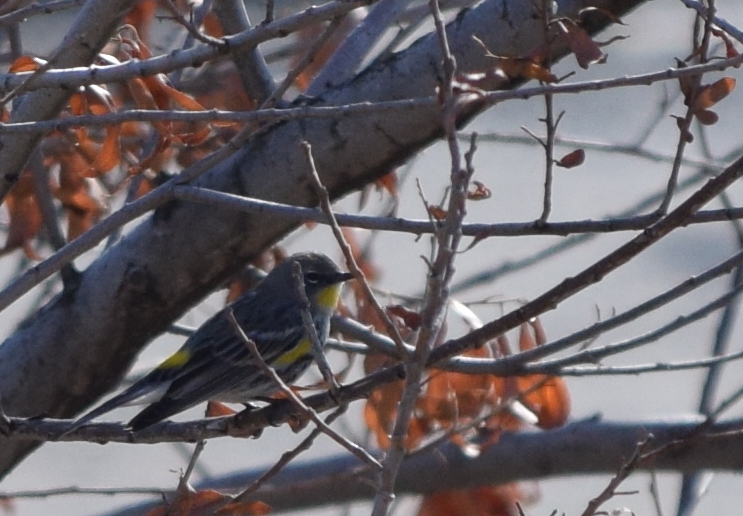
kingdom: Animalia
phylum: Chordata
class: Aves
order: Passeriformes
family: Parulidae
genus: Setophaga
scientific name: Setophaga coronata
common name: Myrtle warbler
